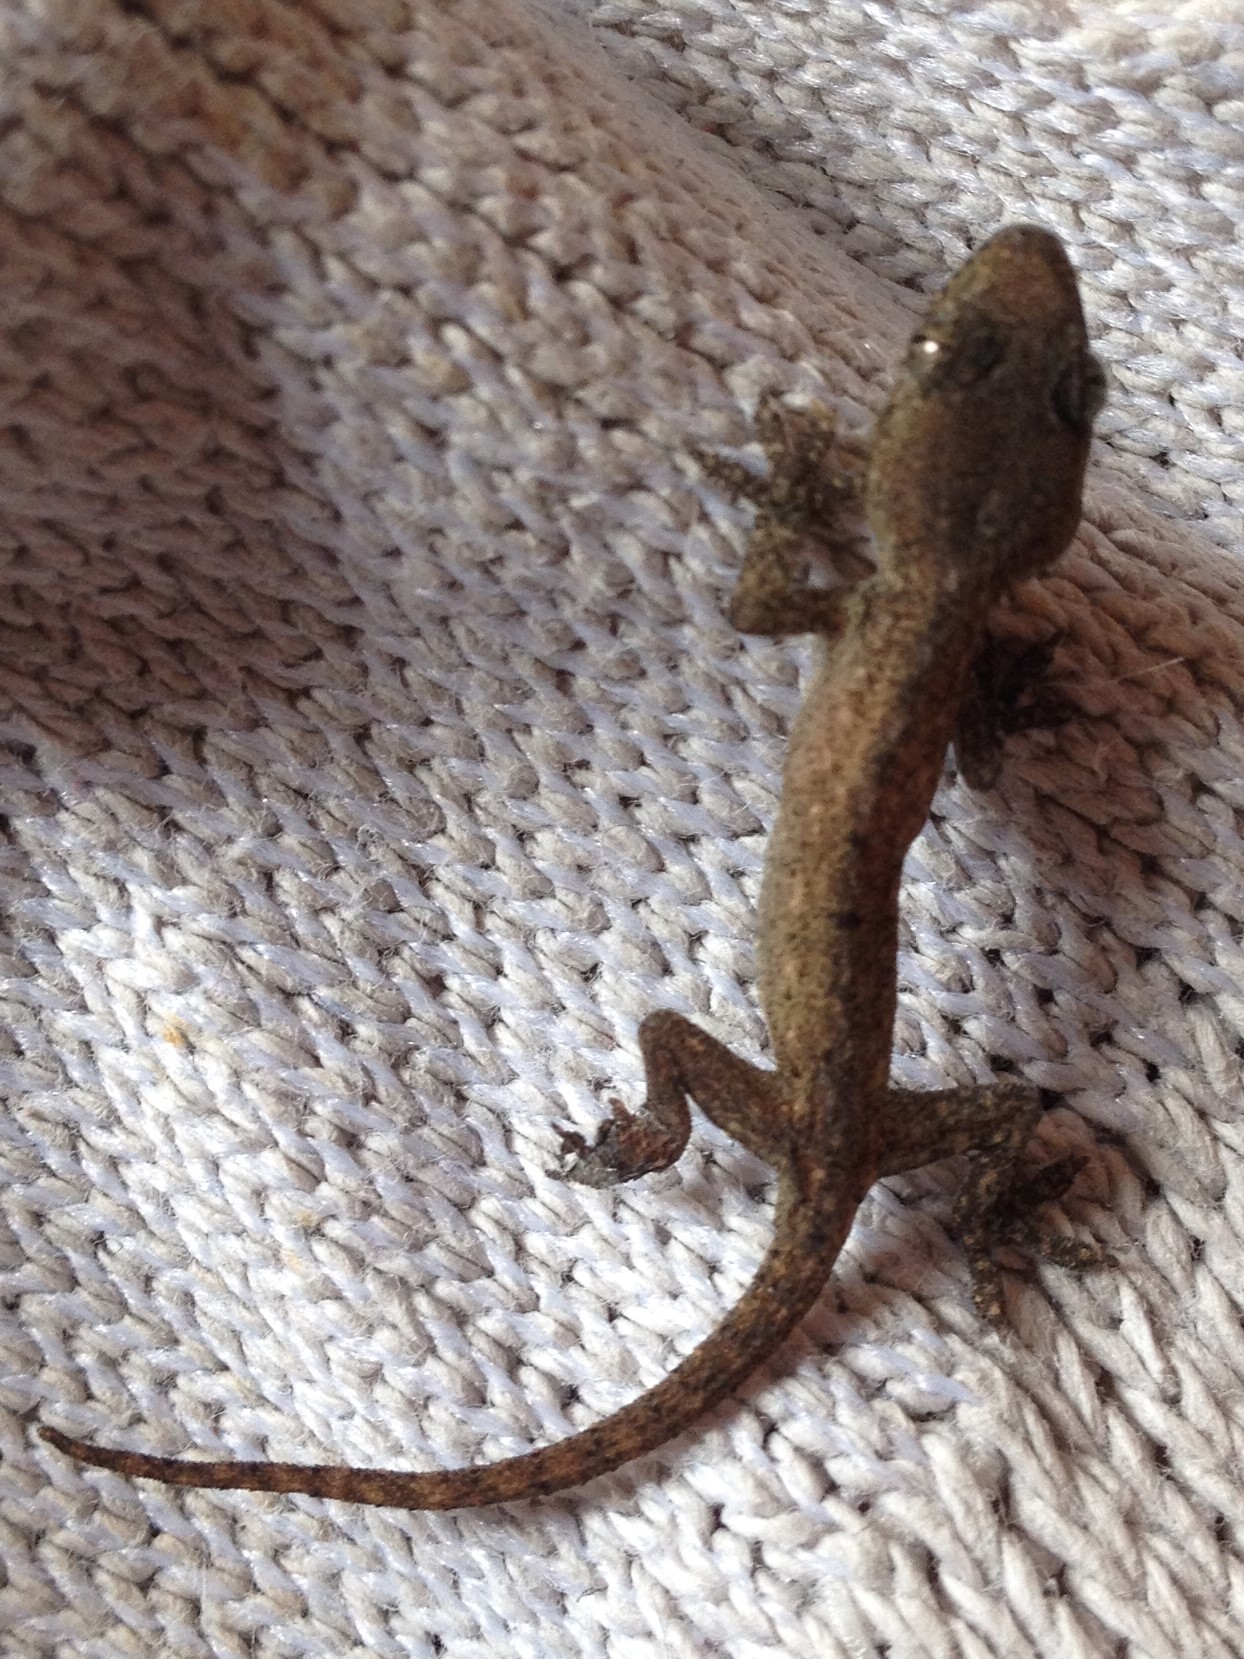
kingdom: Animalia
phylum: Chordata
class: Squamata
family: Gekkonidae
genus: Hemidactylus
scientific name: Hemidactylus frenatus
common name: Common house gecko
